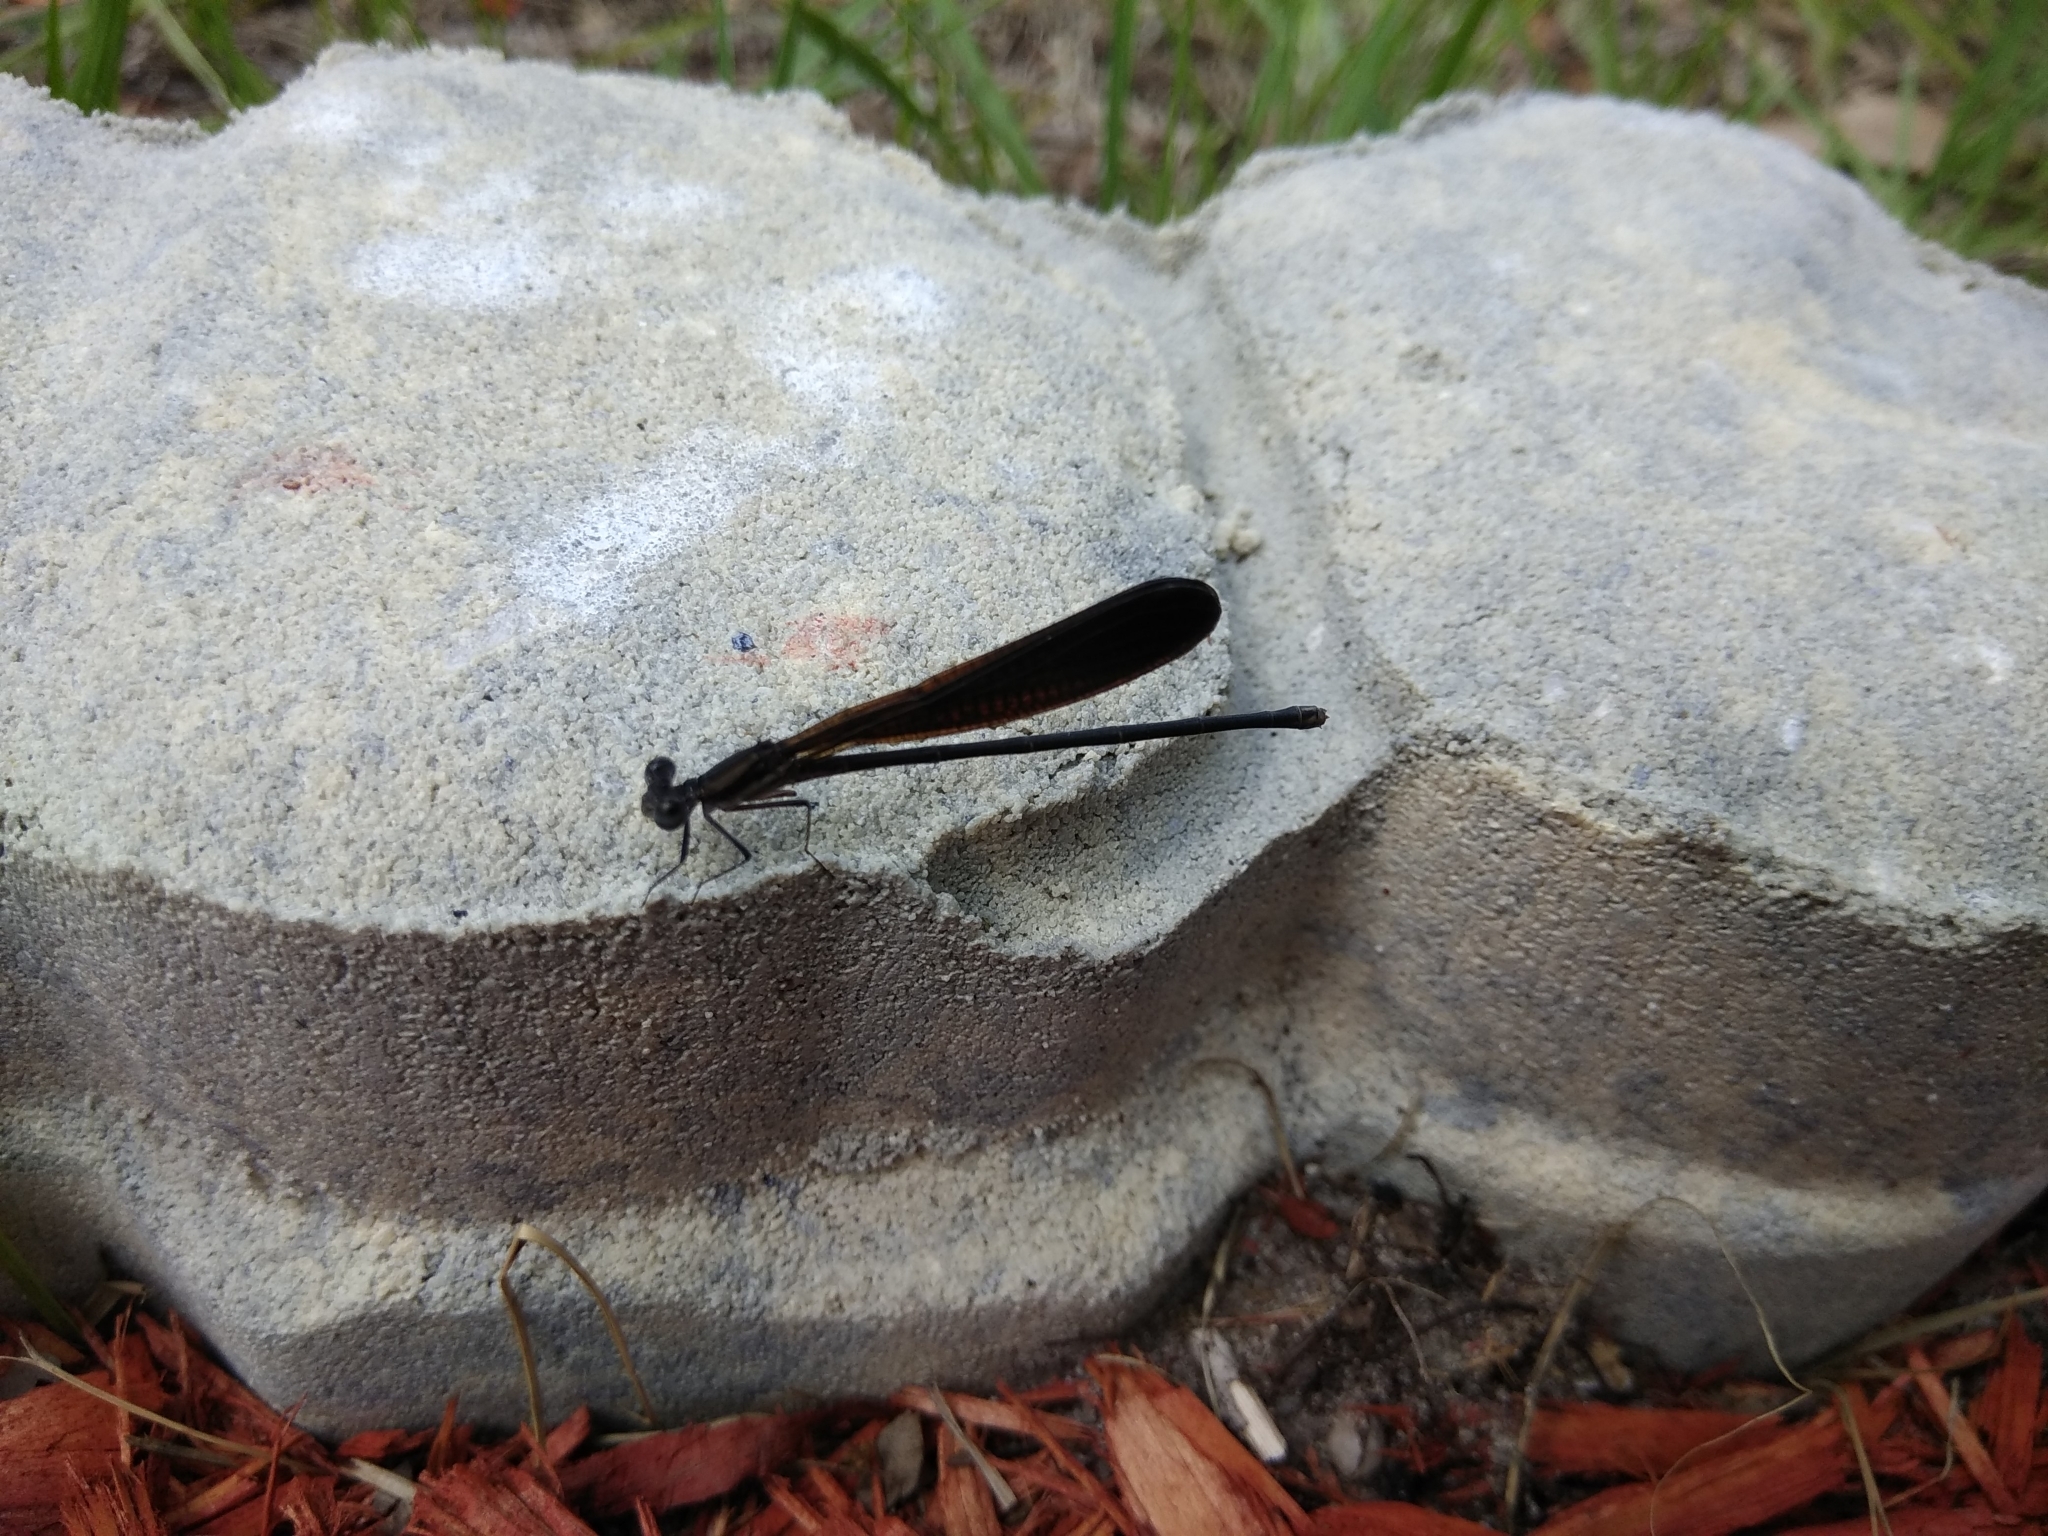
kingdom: Animalia
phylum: Arthropoda
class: Insecta
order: Odonata
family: Coenagrionidae
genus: Argia
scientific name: Argia fumipennis
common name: Variable dancer
